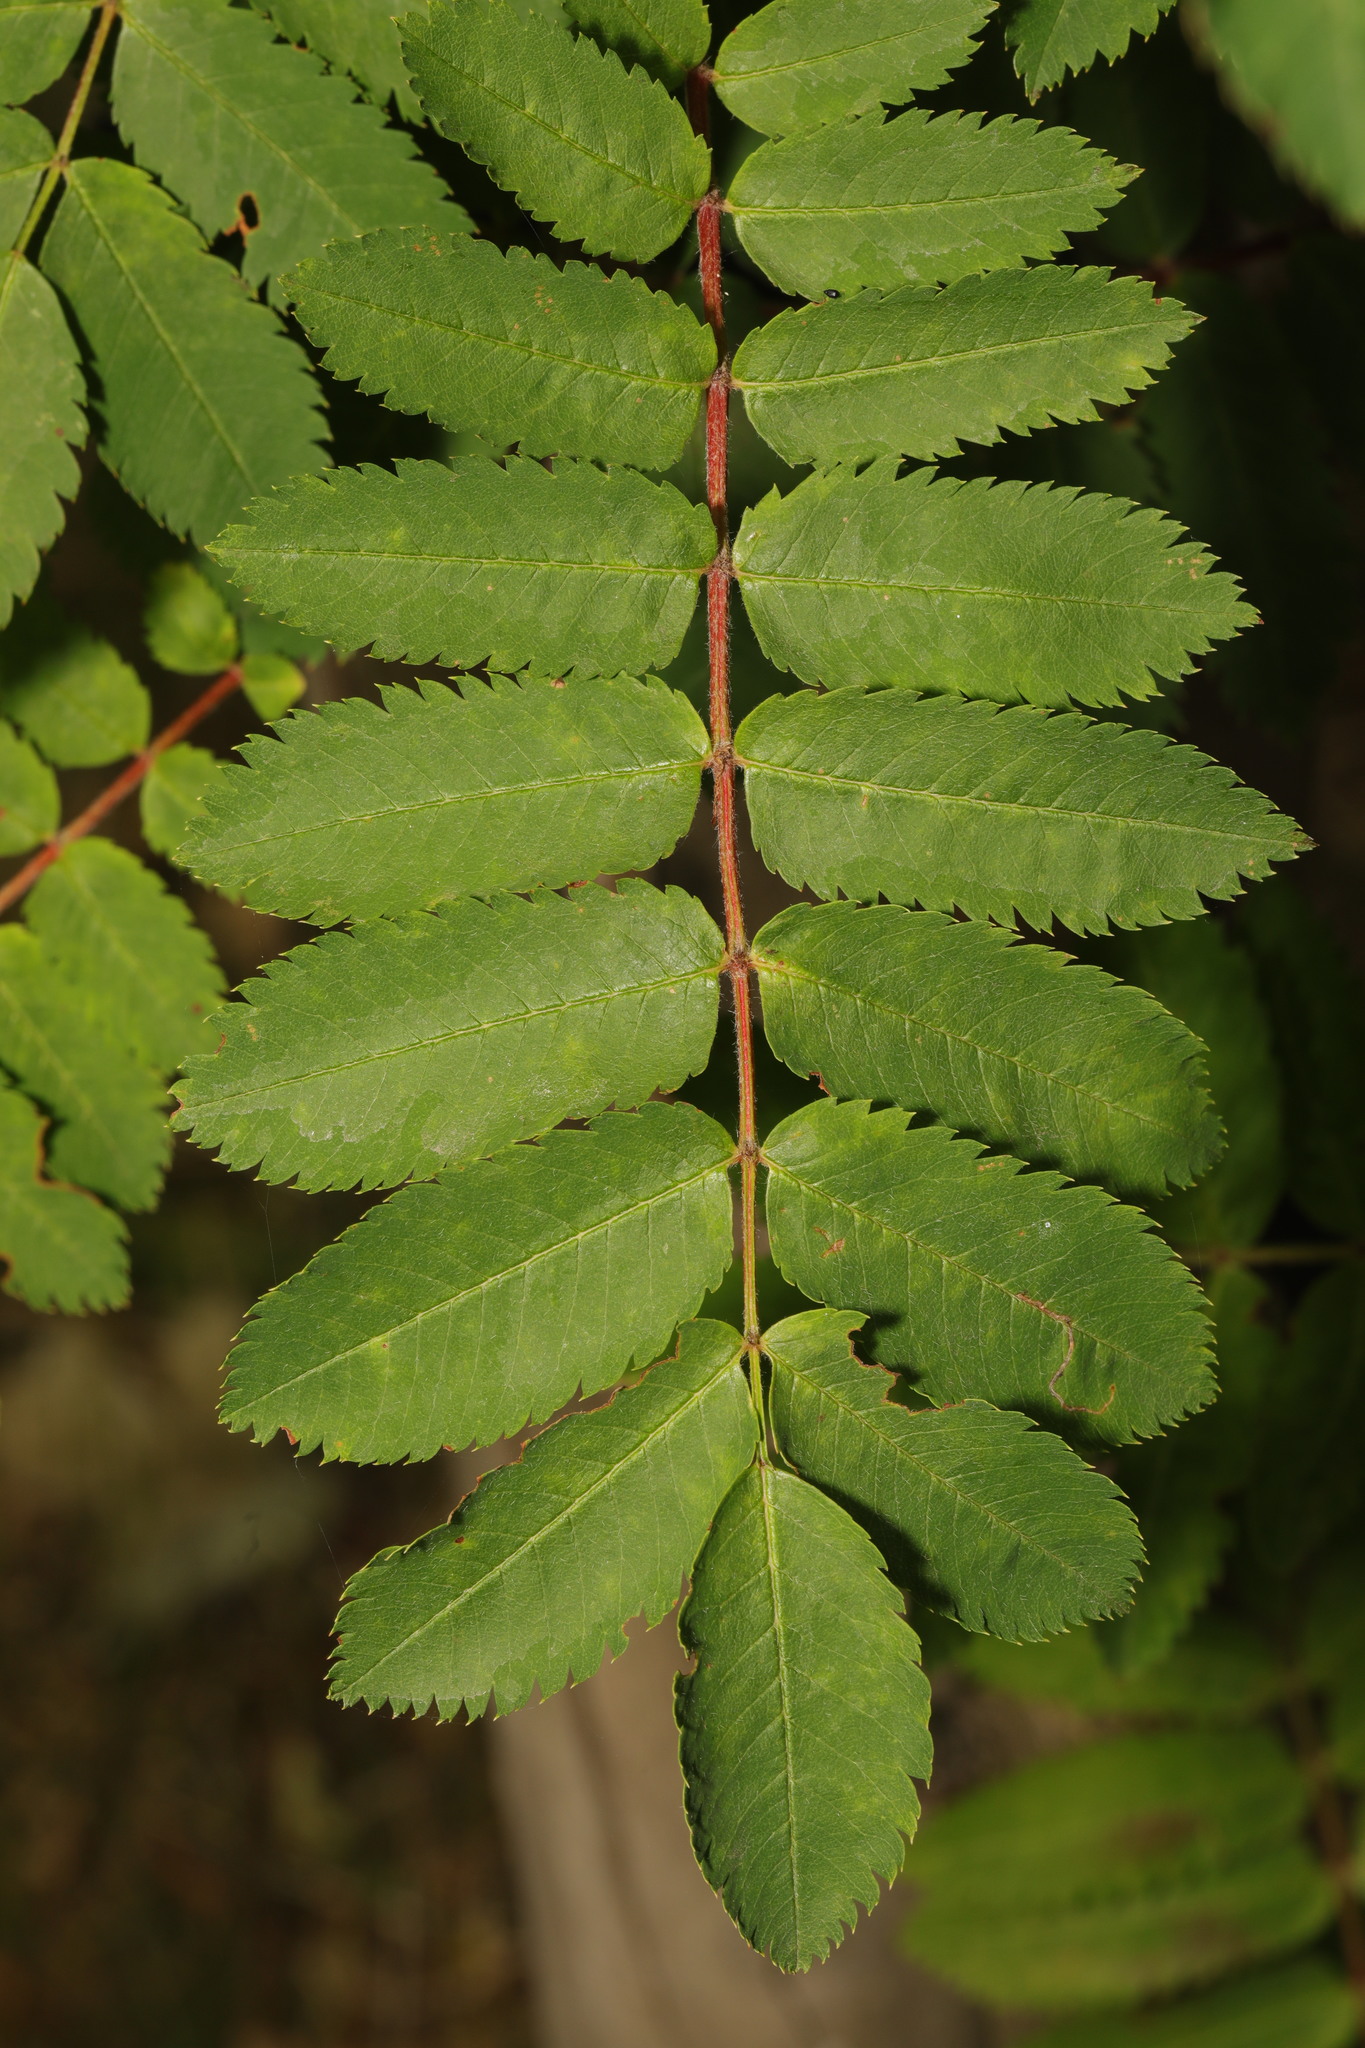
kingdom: Plantae
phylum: Tracheophyta
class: Magnoliopsida
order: Rosales
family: Rosaceae
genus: Sorbus
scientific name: Sorbus aucuparia
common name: Rowan
